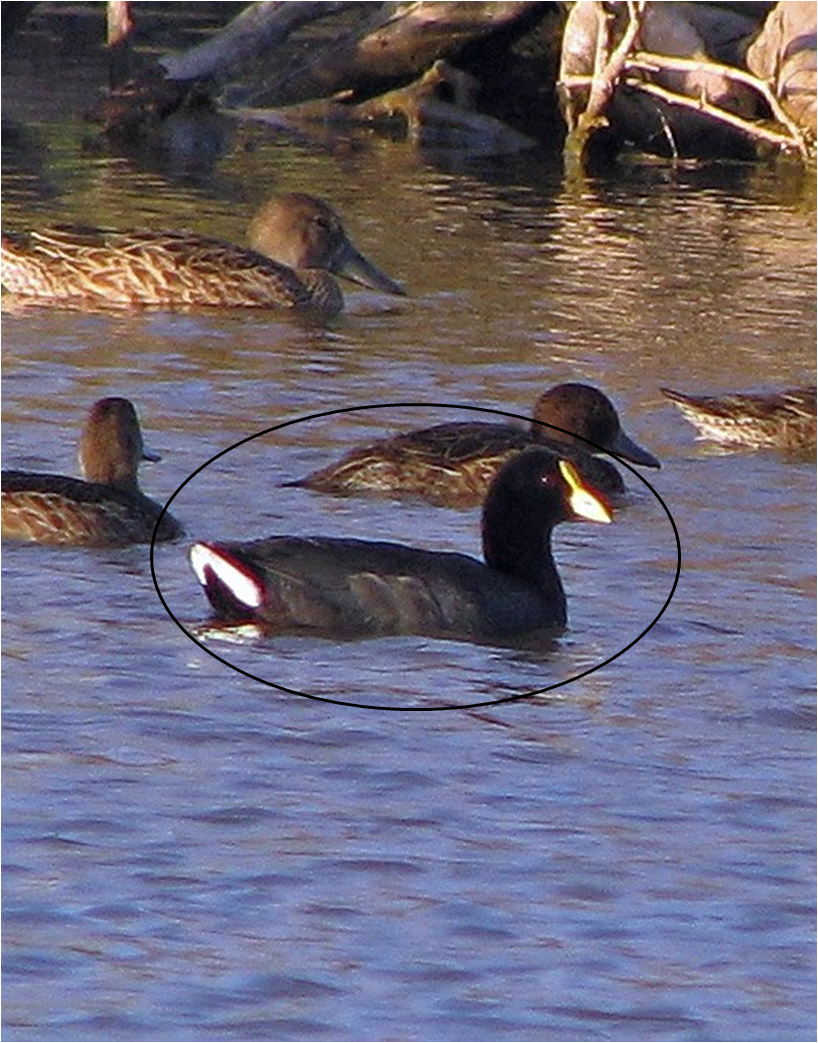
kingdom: Animalia
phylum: Chordata
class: Aves
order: Gruiformes
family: Rallidae
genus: Fulica
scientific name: Fulica leucoptera
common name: White-winged coot
